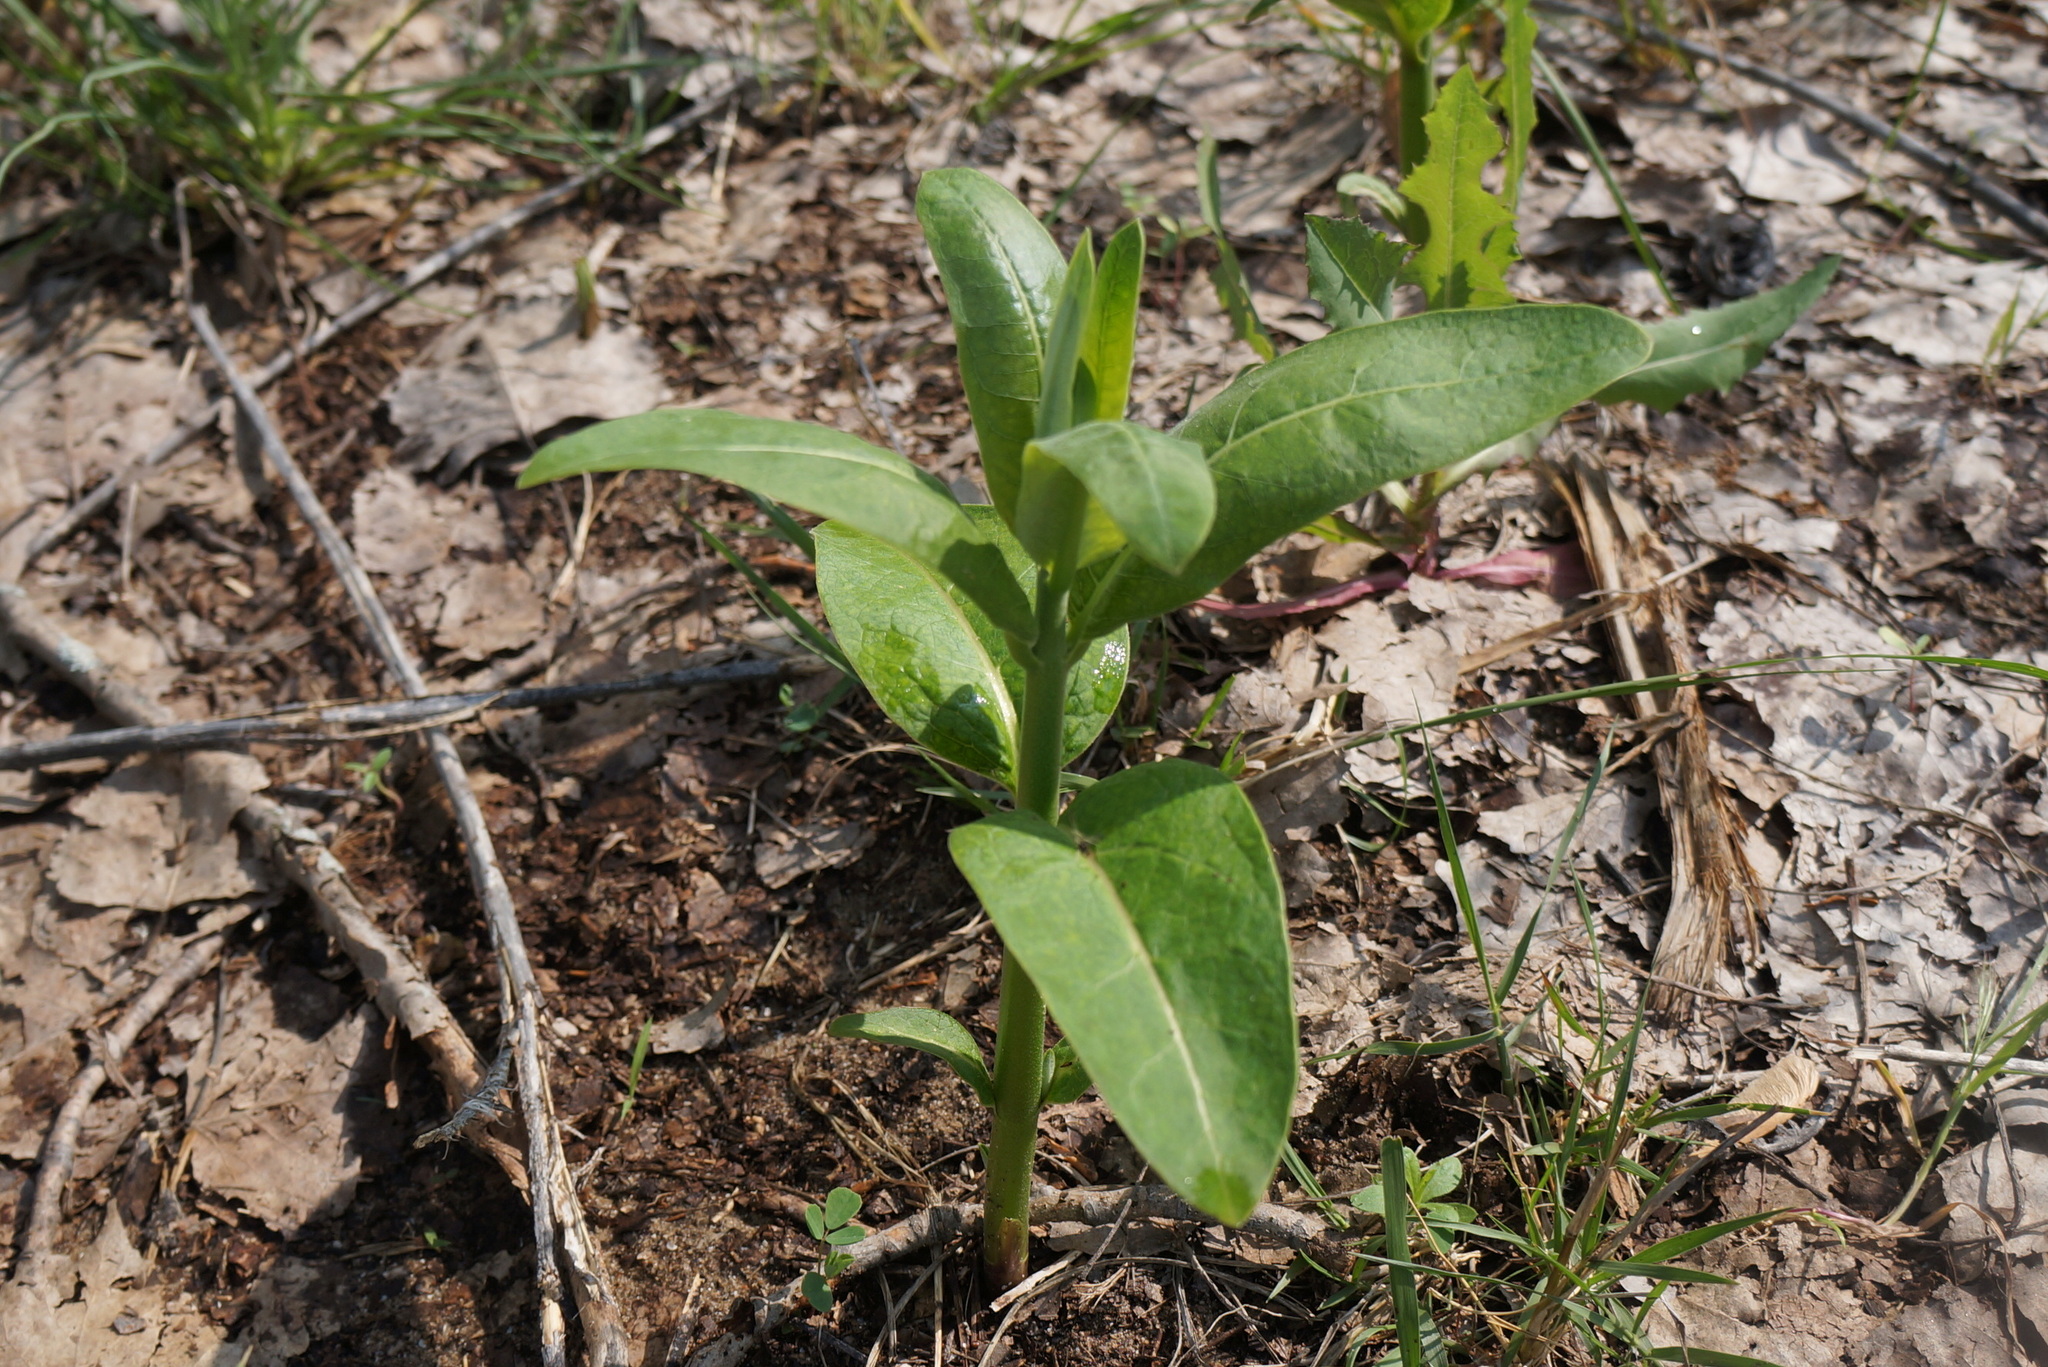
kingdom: Plantae
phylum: Tracheophyta
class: Magnoliopsida
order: Gentianales
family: Apocynaceae
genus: Apocynum
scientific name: Apocynum cannabinum
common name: Hemp dogbane
